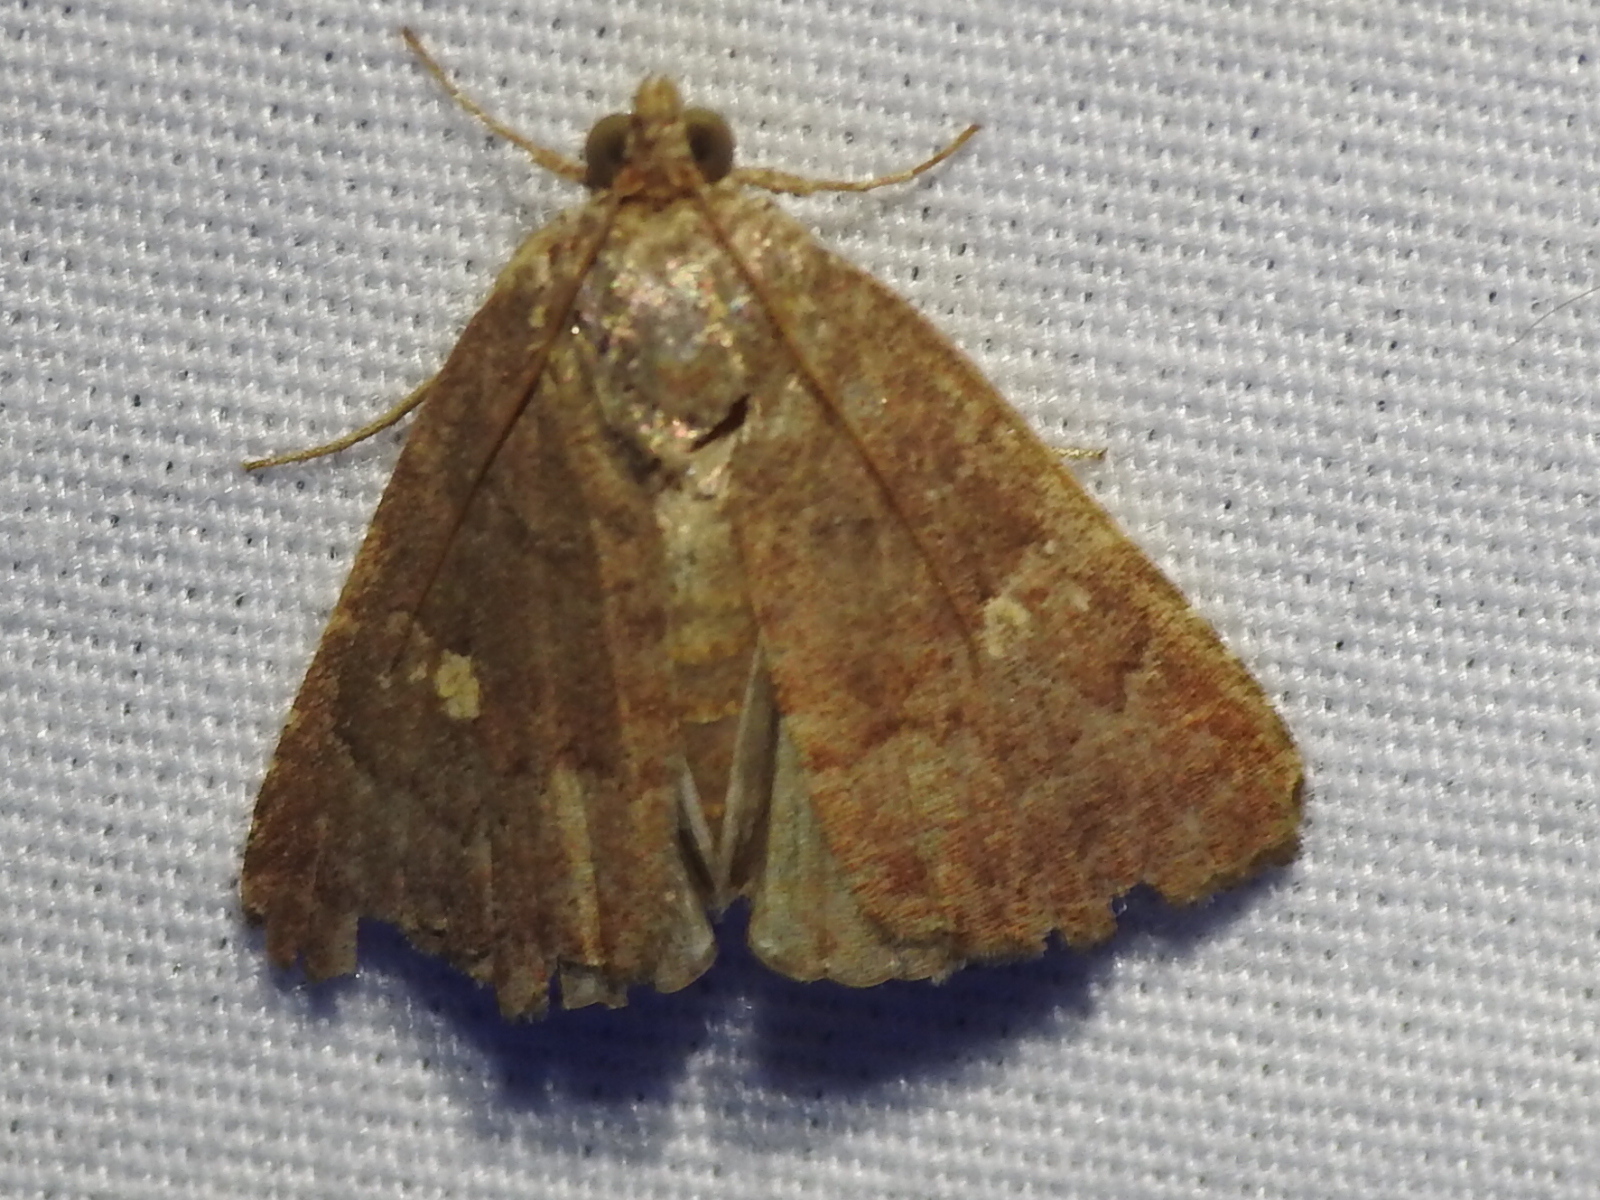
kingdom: Animalia
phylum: Arthropoda
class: Insecta
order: Lepidoptera
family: Noctuidae
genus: Amyna
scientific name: Amyna stricta
